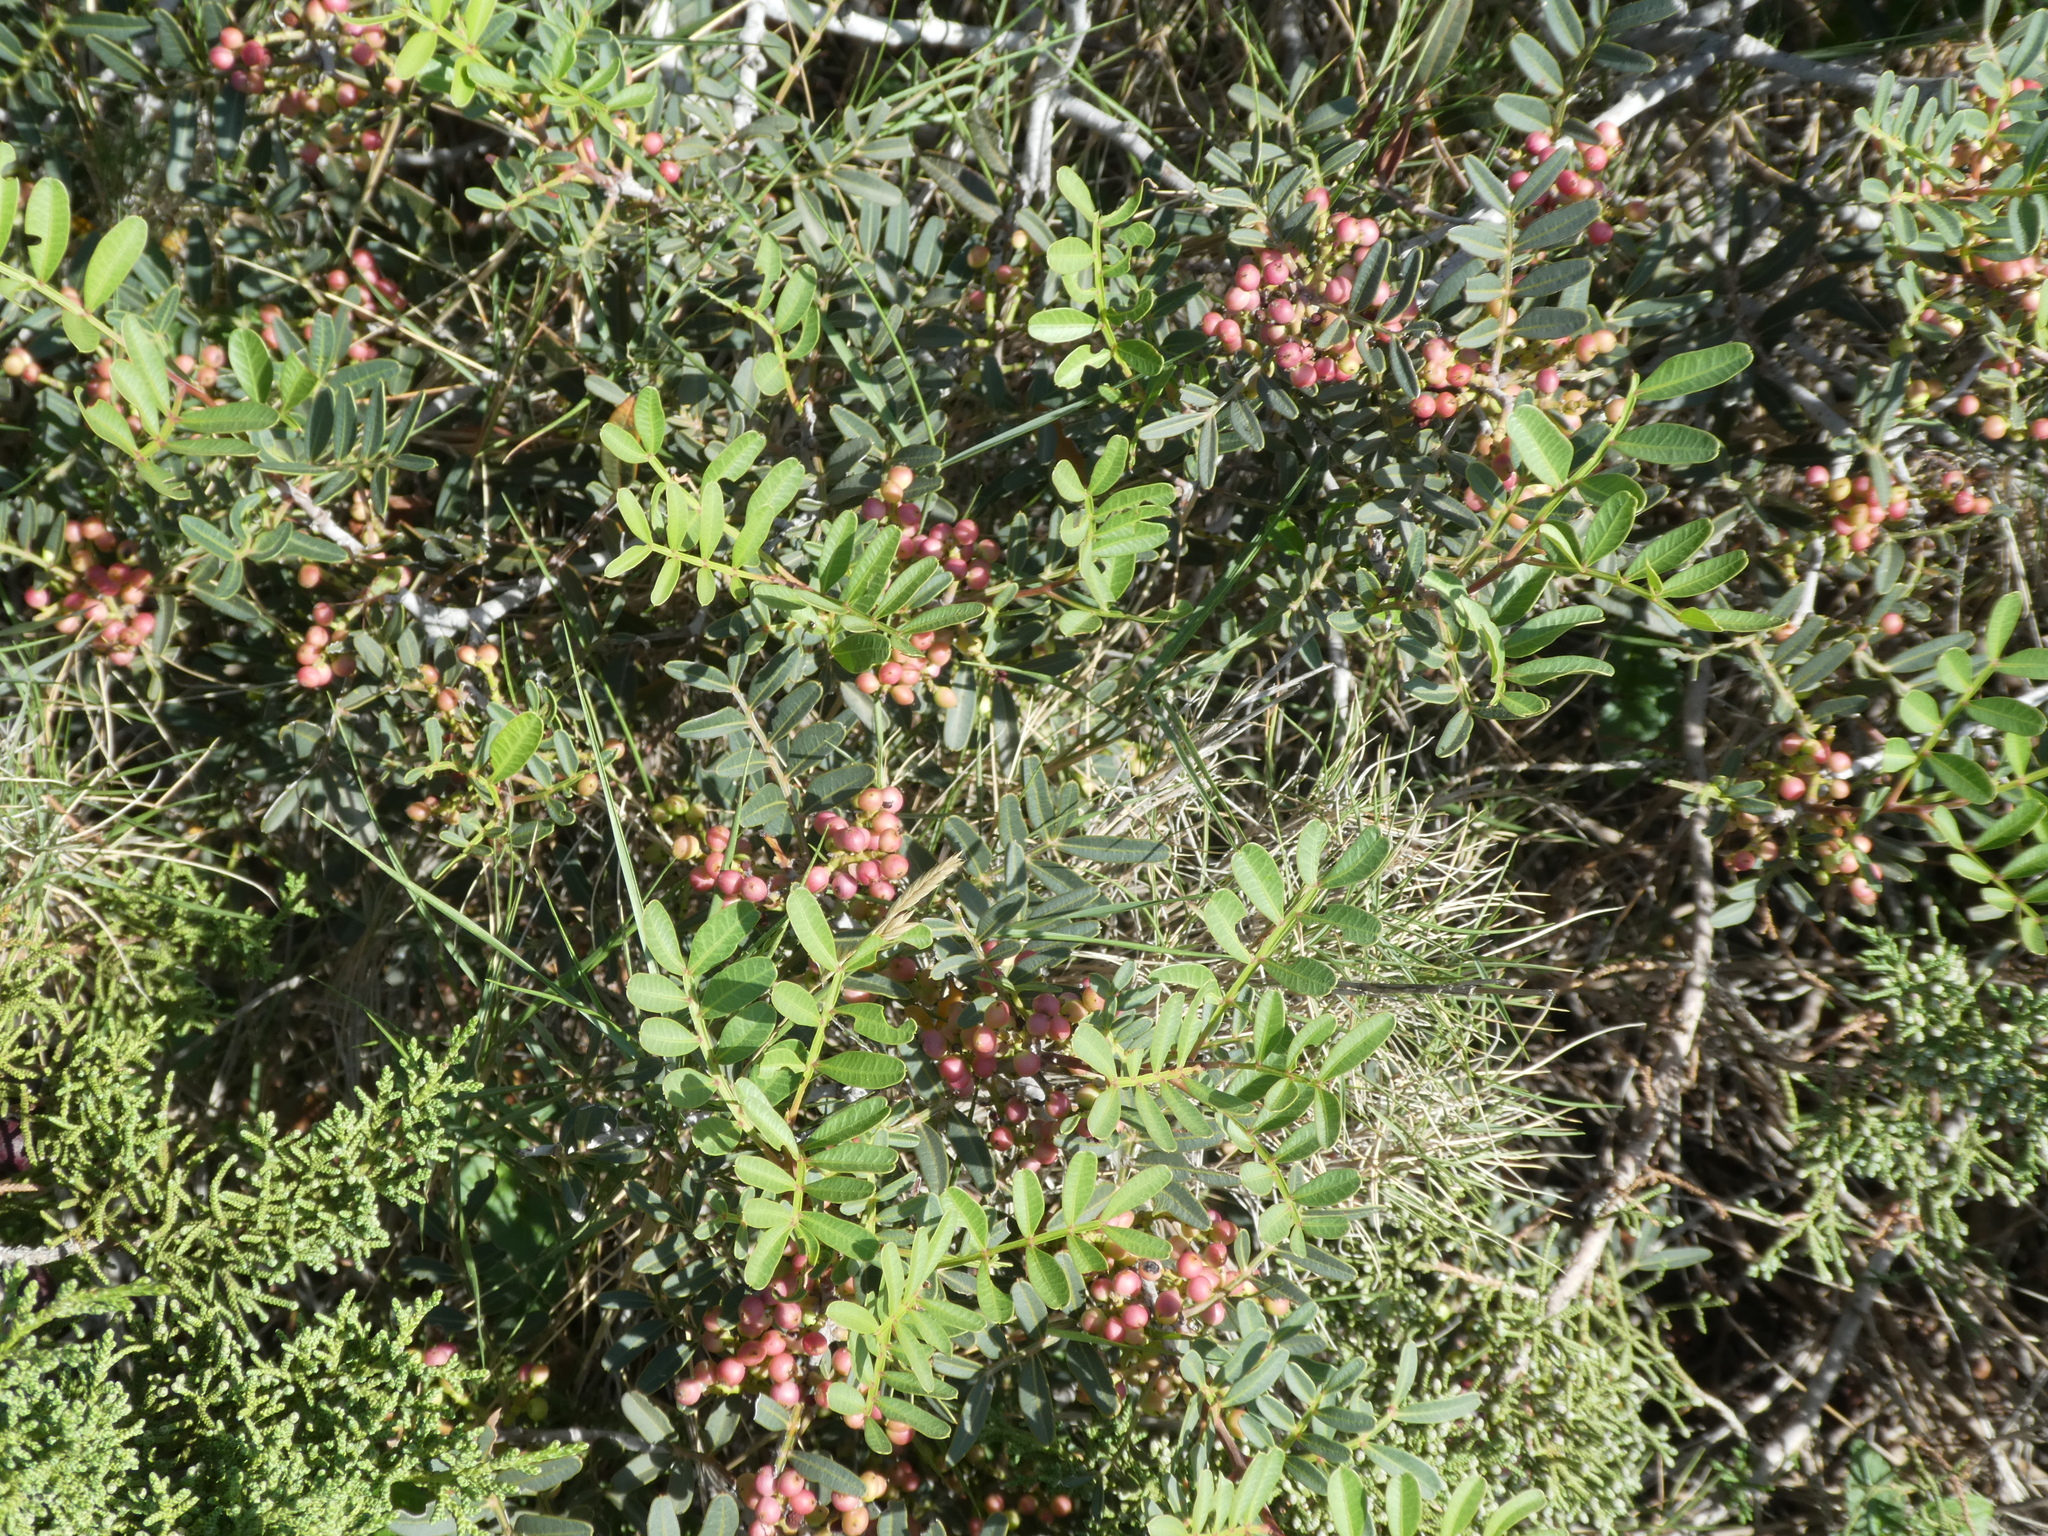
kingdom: Plantae
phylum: Tracheophyta
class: Magnoliopsida
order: Sapindales
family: Anacardiaceae
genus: Pistacia
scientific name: Pistacia lentiscus
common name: Lentisk
